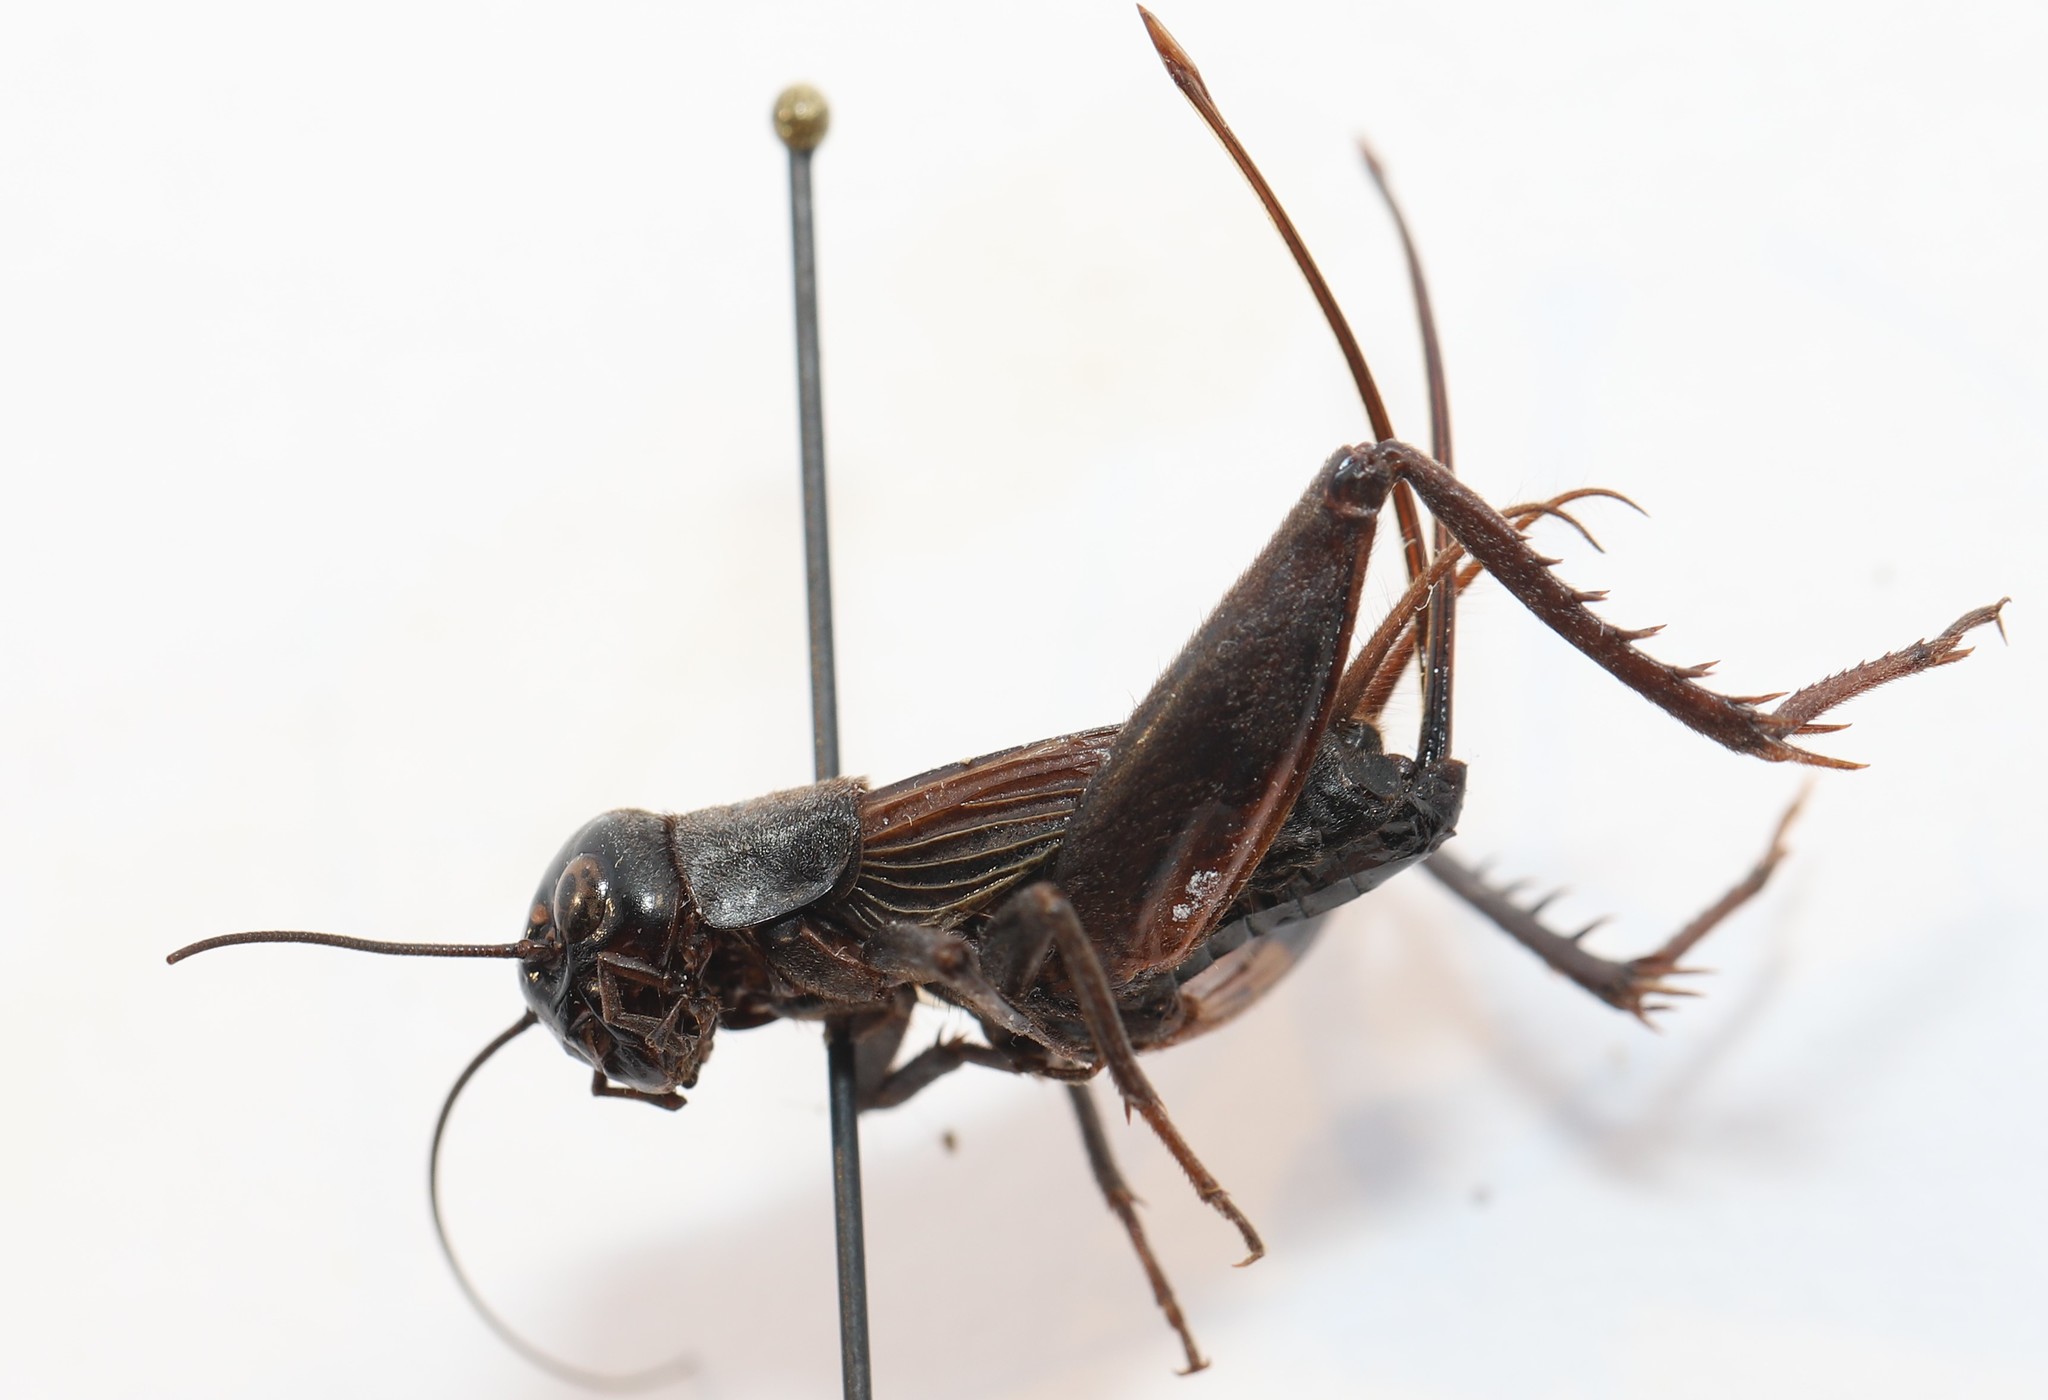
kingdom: Animalia
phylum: Arthropoda
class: Insecta
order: Orthoptera
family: Gryllidae
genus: Gryllus
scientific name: Gryllus pennsylvanicus
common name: Fall field cricket
